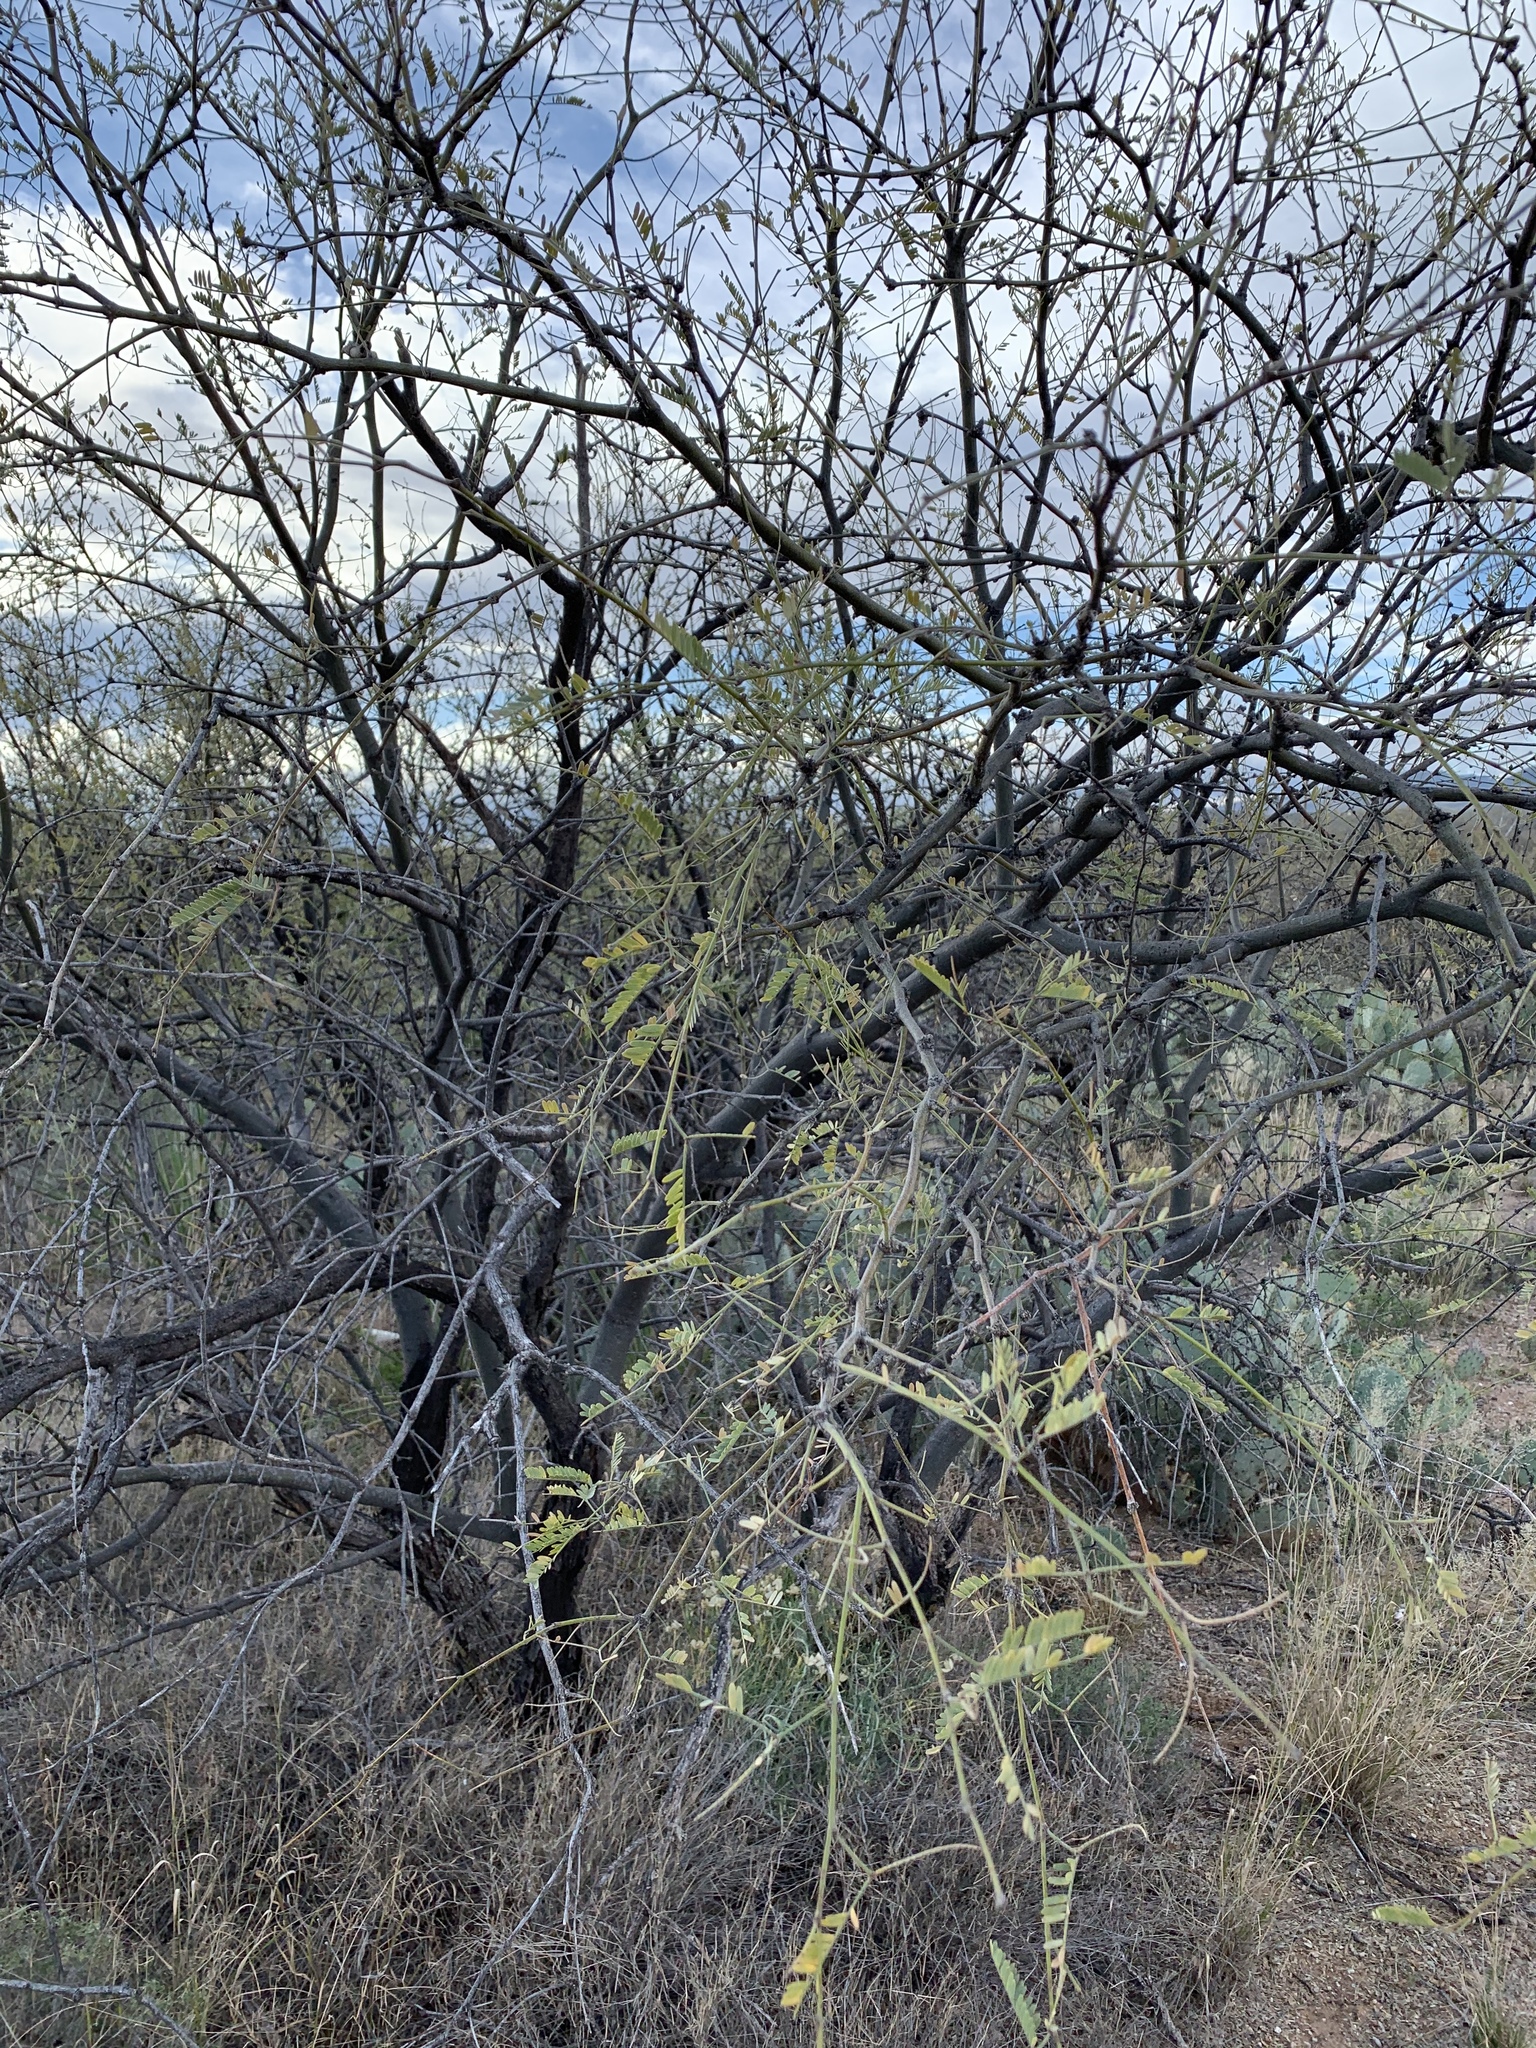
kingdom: Plantae
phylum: Tracheophyta
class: Magnoliopsida
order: Fabales
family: Fabaceae
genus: Prosopis
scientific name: Prosopis velutina
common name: Velvet mesquite
